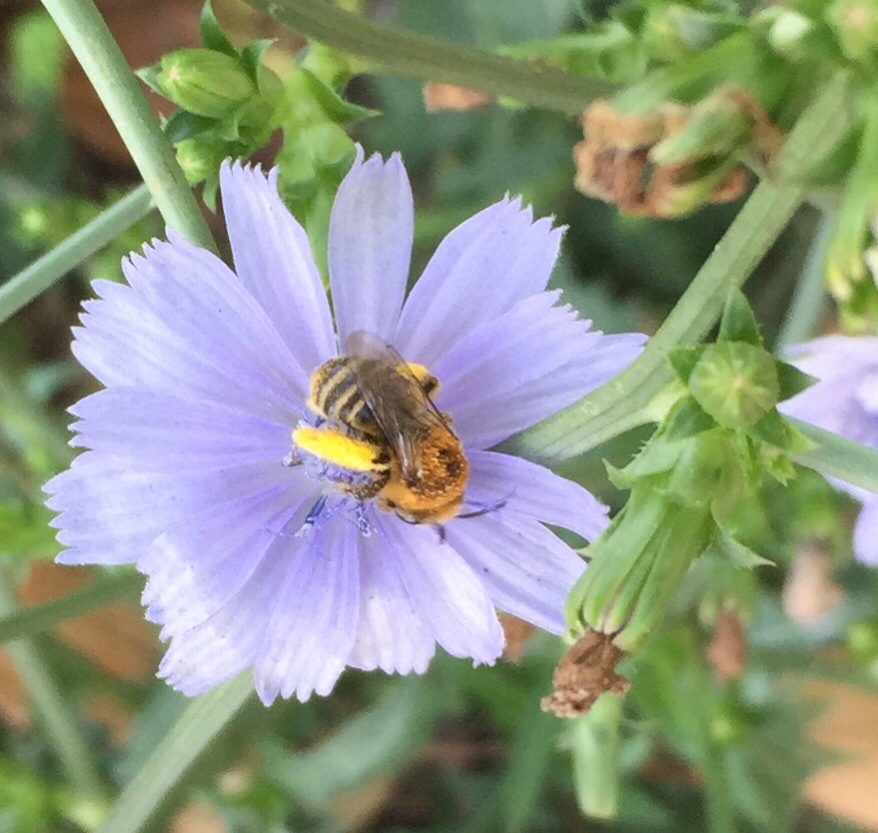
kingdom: Animalia
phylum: Arthropoda
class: Insecta
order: Hymenoptera
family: Apidae
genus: Melissodes
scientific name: Melissodes trinodis
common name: Dark-veined longhorn
